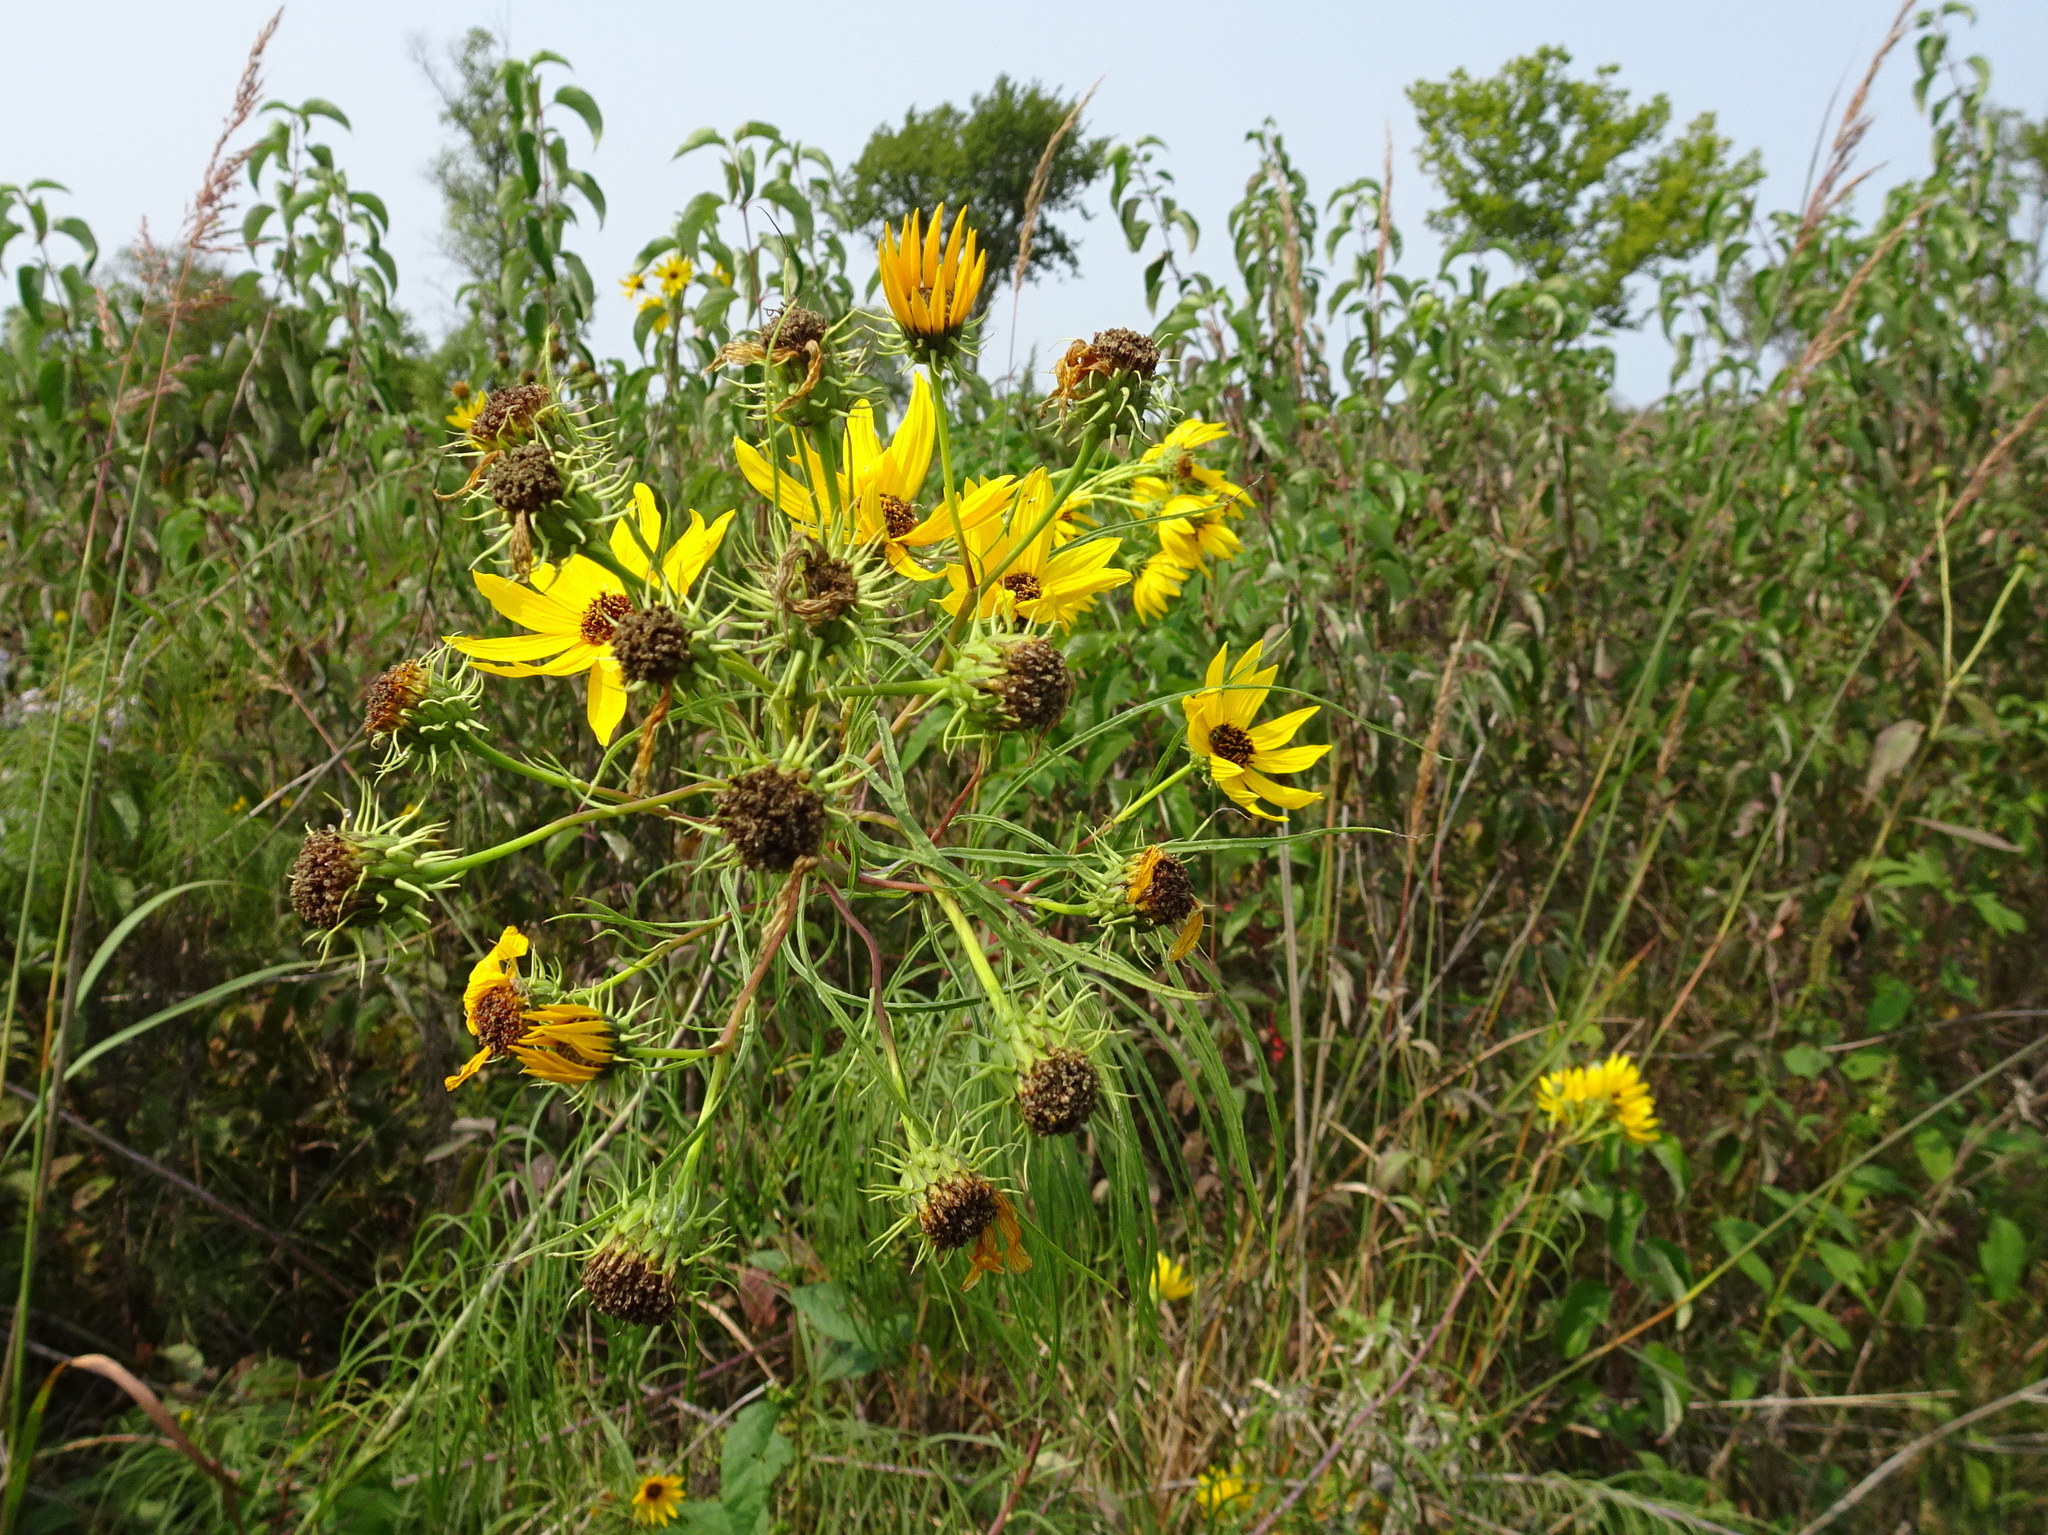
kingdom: Plantae
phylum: Tracheophyta
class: Magnoliopsida
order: Asterales
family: Asteraceae
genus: Helianthus
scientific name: Helianthus salicifolius
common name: Willowleaf sunflower
